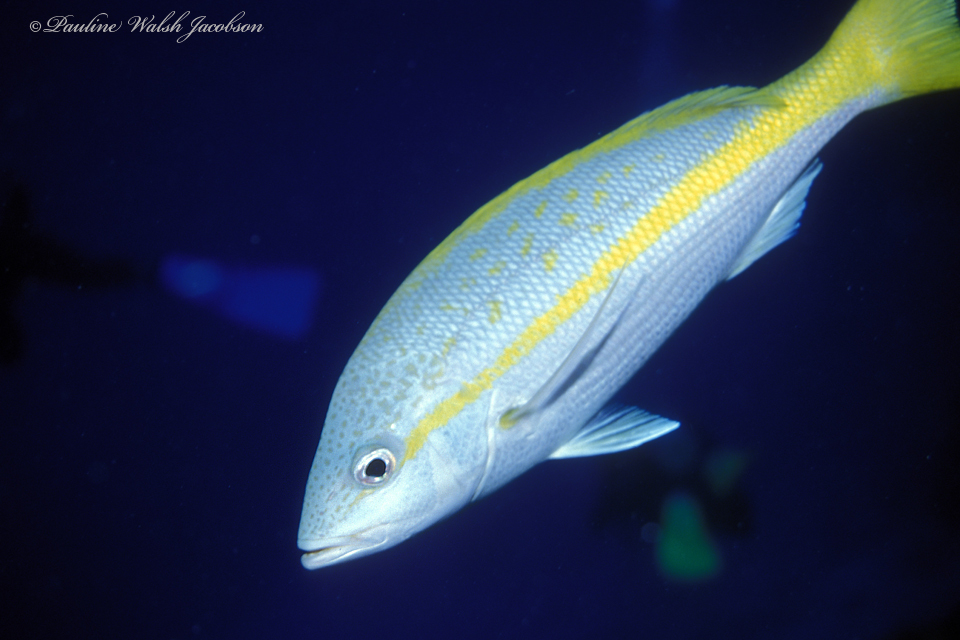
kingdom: Animalia
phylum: Chordata
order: Perciformes
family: Lutjanidae
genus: Ocyurus
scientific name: Ocyurus chrysurus
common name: Yellowtail snapper
